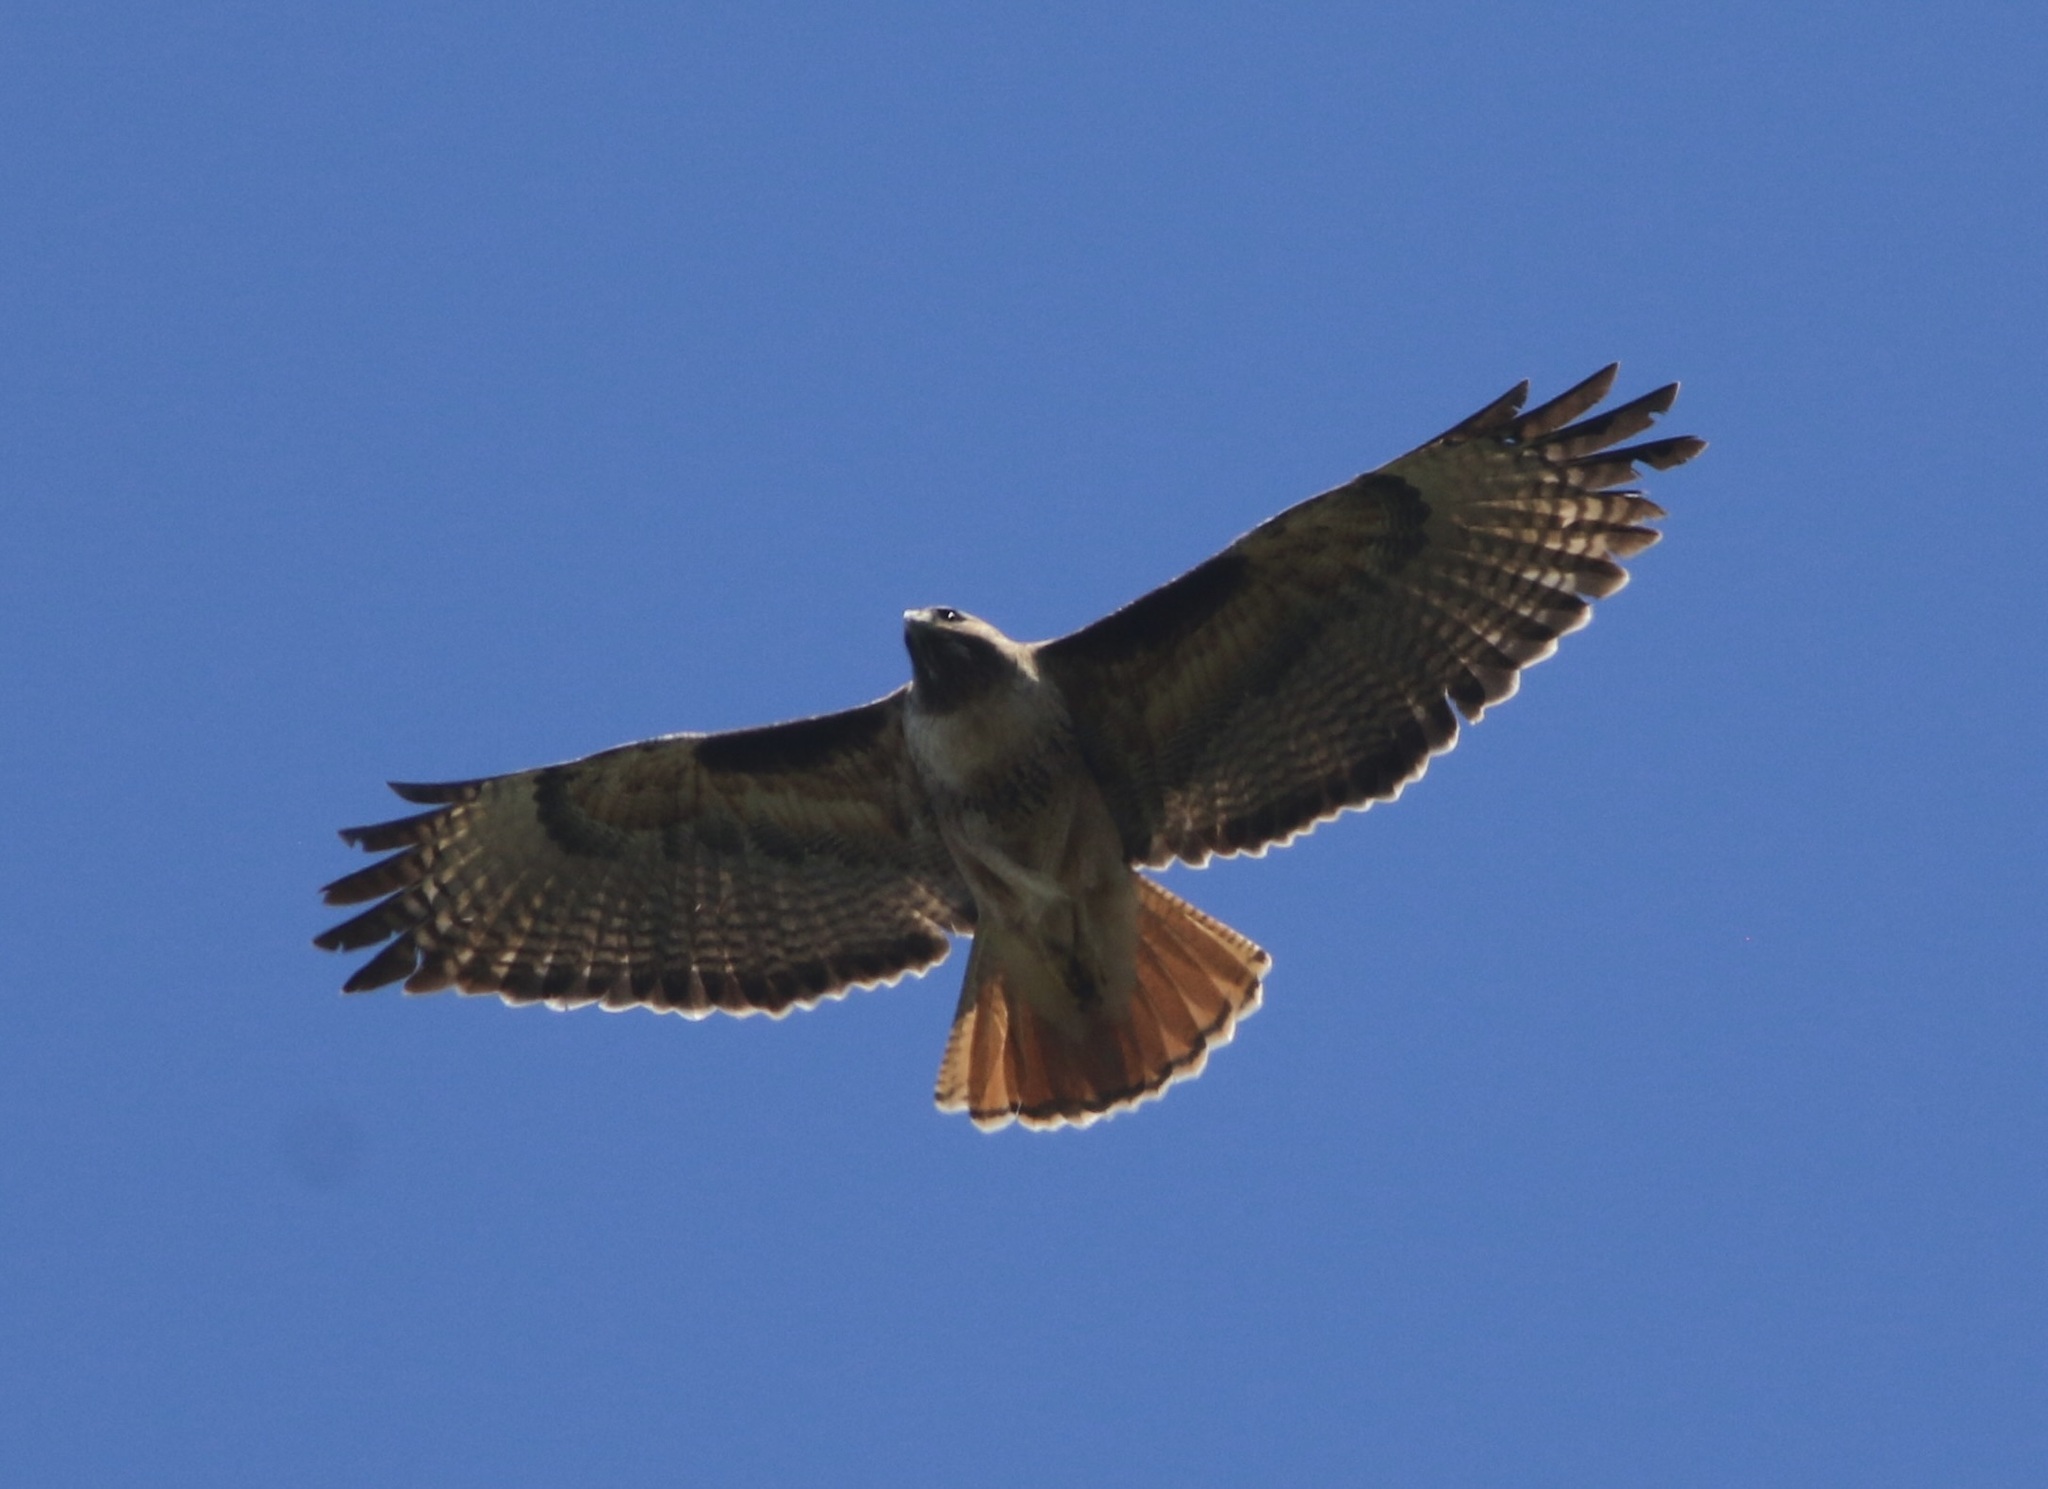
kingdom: Animalia
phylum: Chordata
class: Aves
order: Accipitriformes
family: Accipitridae
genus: Buteo
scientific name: Buteo jamaicensis
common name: Red-tailed hawk
